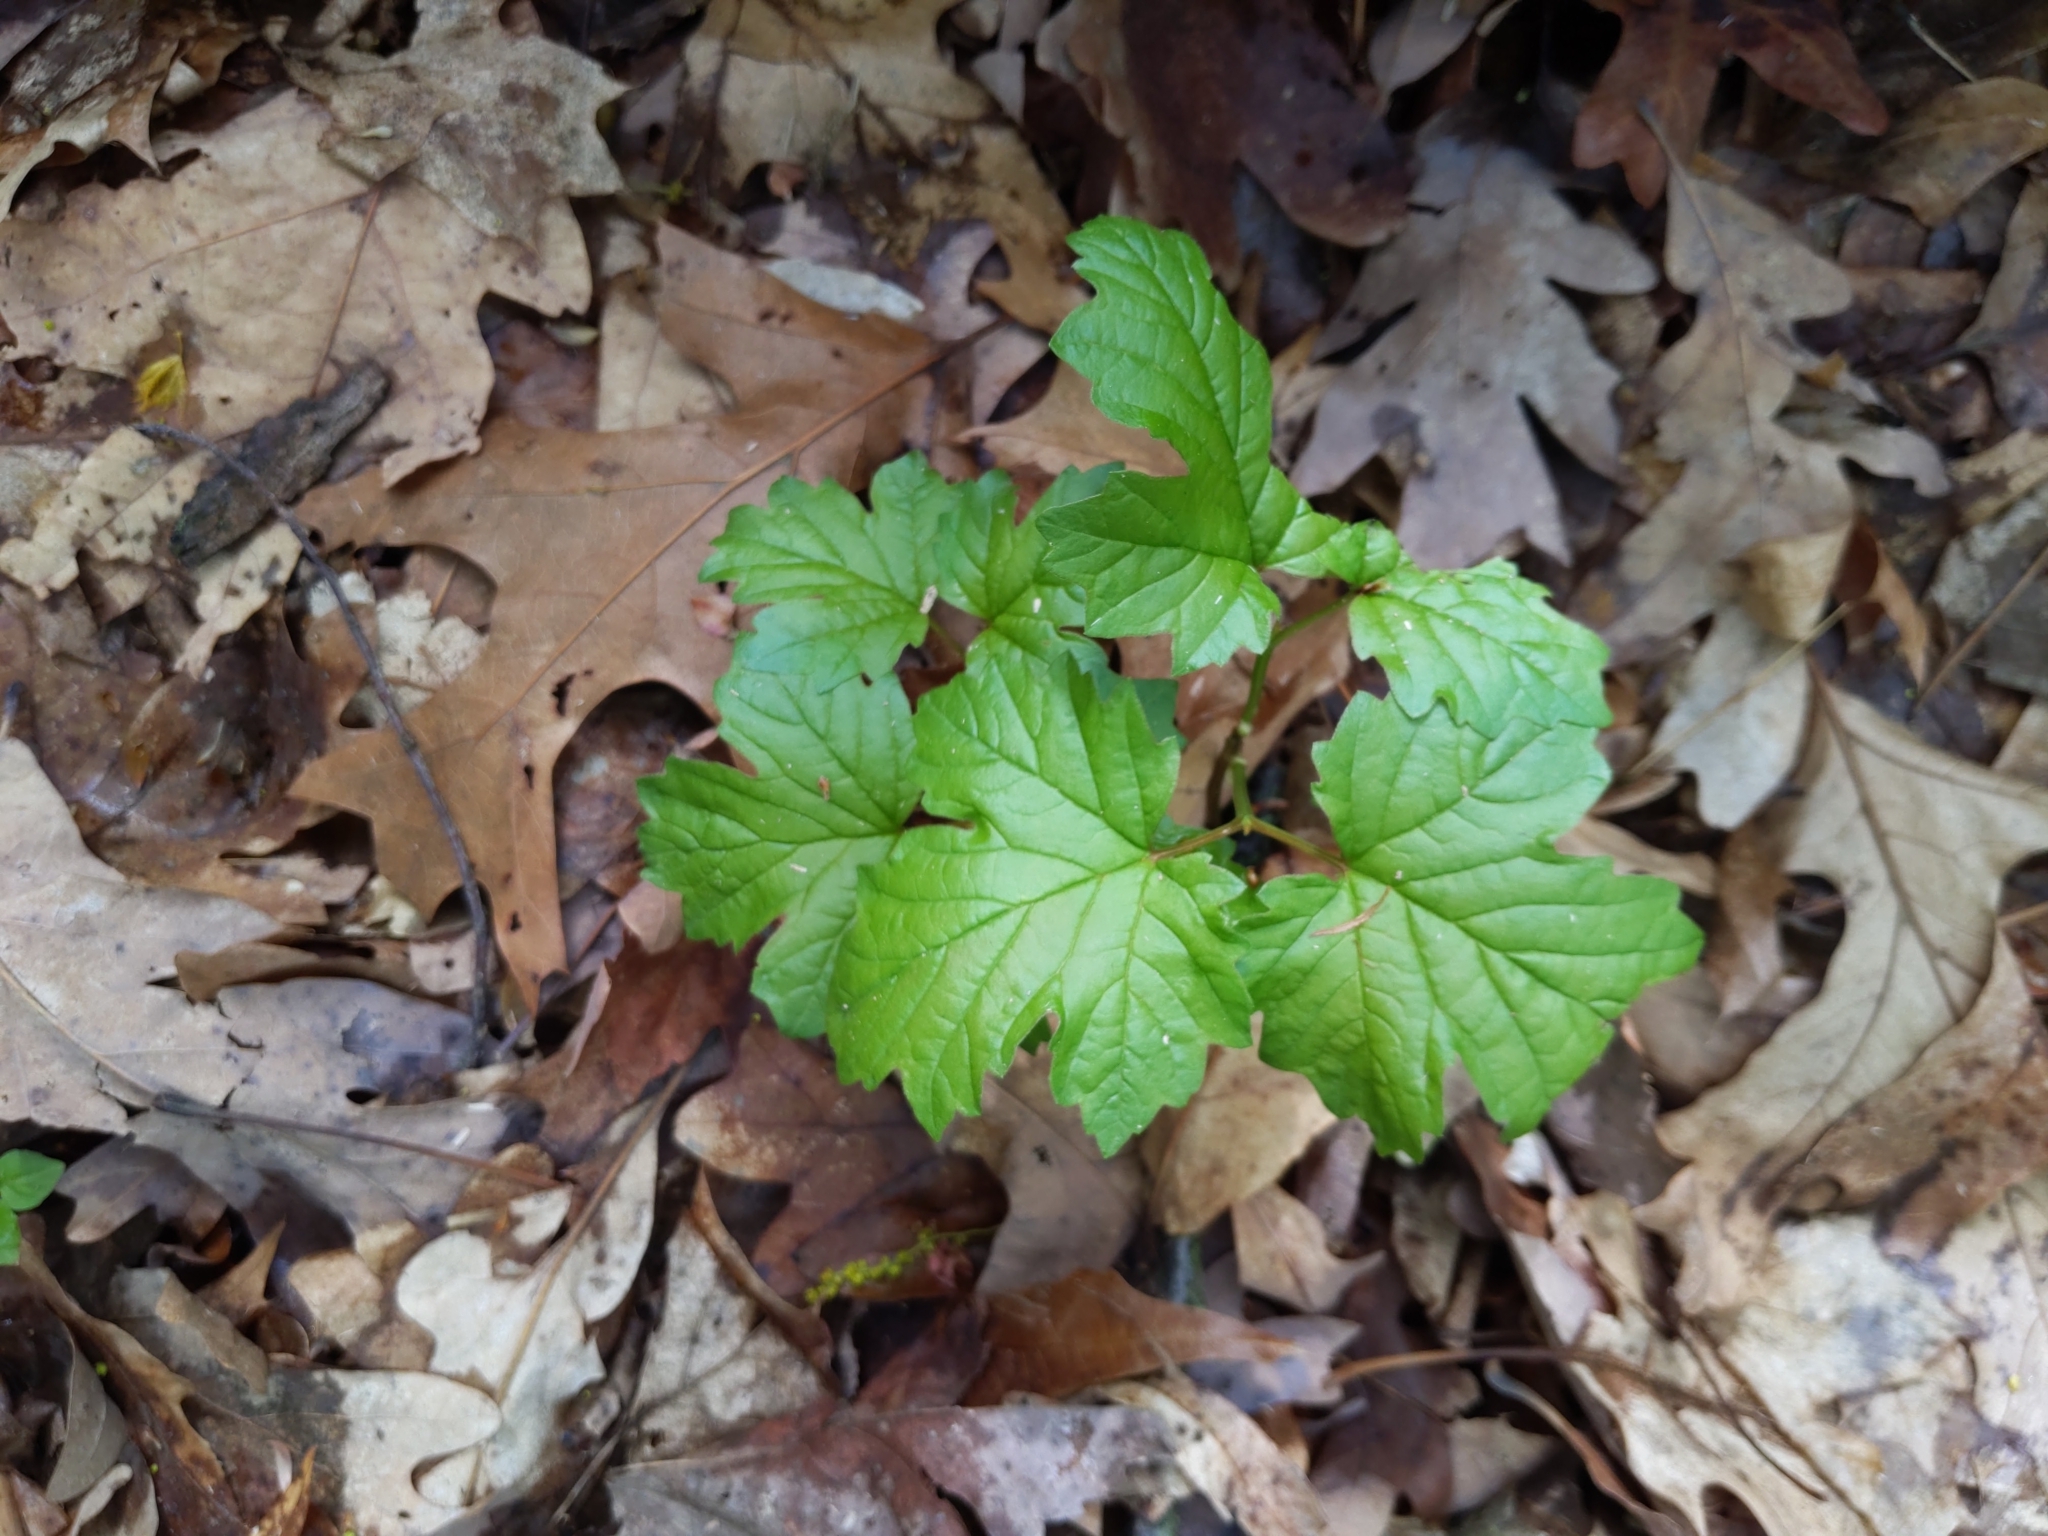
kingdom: Plantae
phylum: Tracheophyta
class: Magnoliopsida
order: Dipsacales
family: Viburnaceae
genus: Viburnum
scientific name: Viburnum acerifolium
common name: Dockmackie
